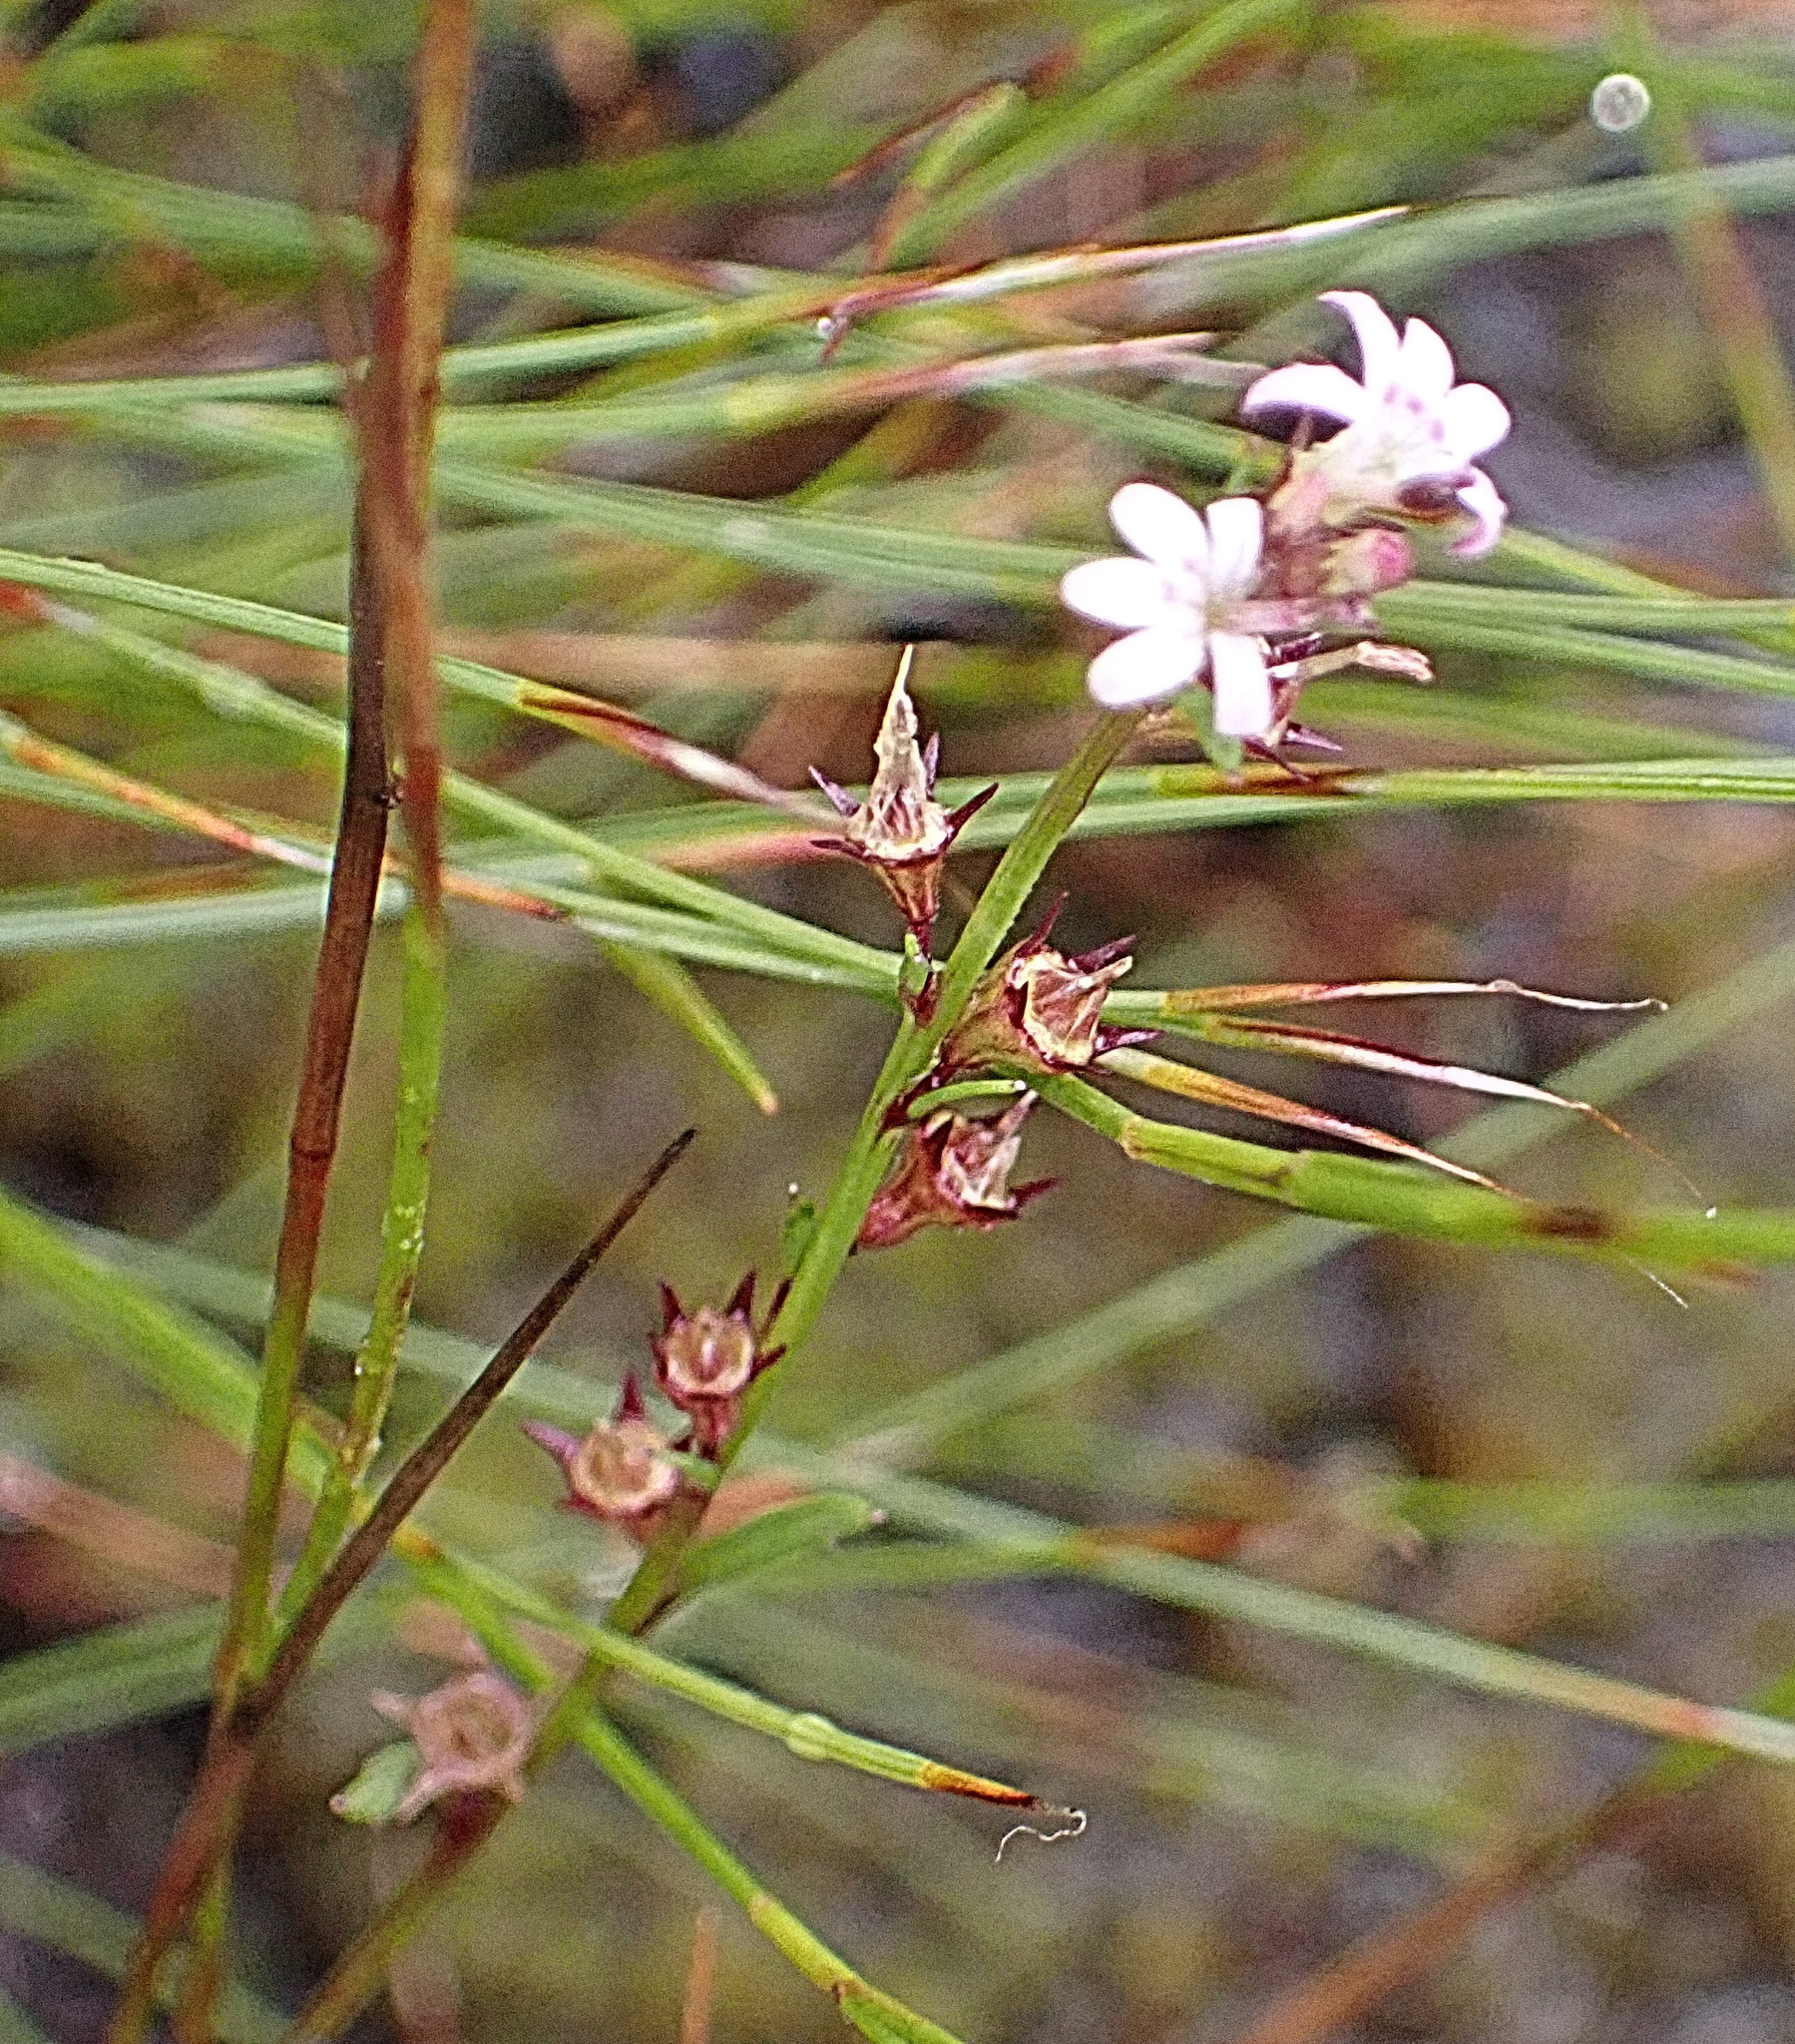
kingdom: Plantae
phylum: Tracheophyta
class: Magnoliopsida
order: Asterales
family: Campanulaceae
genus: Lobelia
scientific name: Lobelia jasionoides
